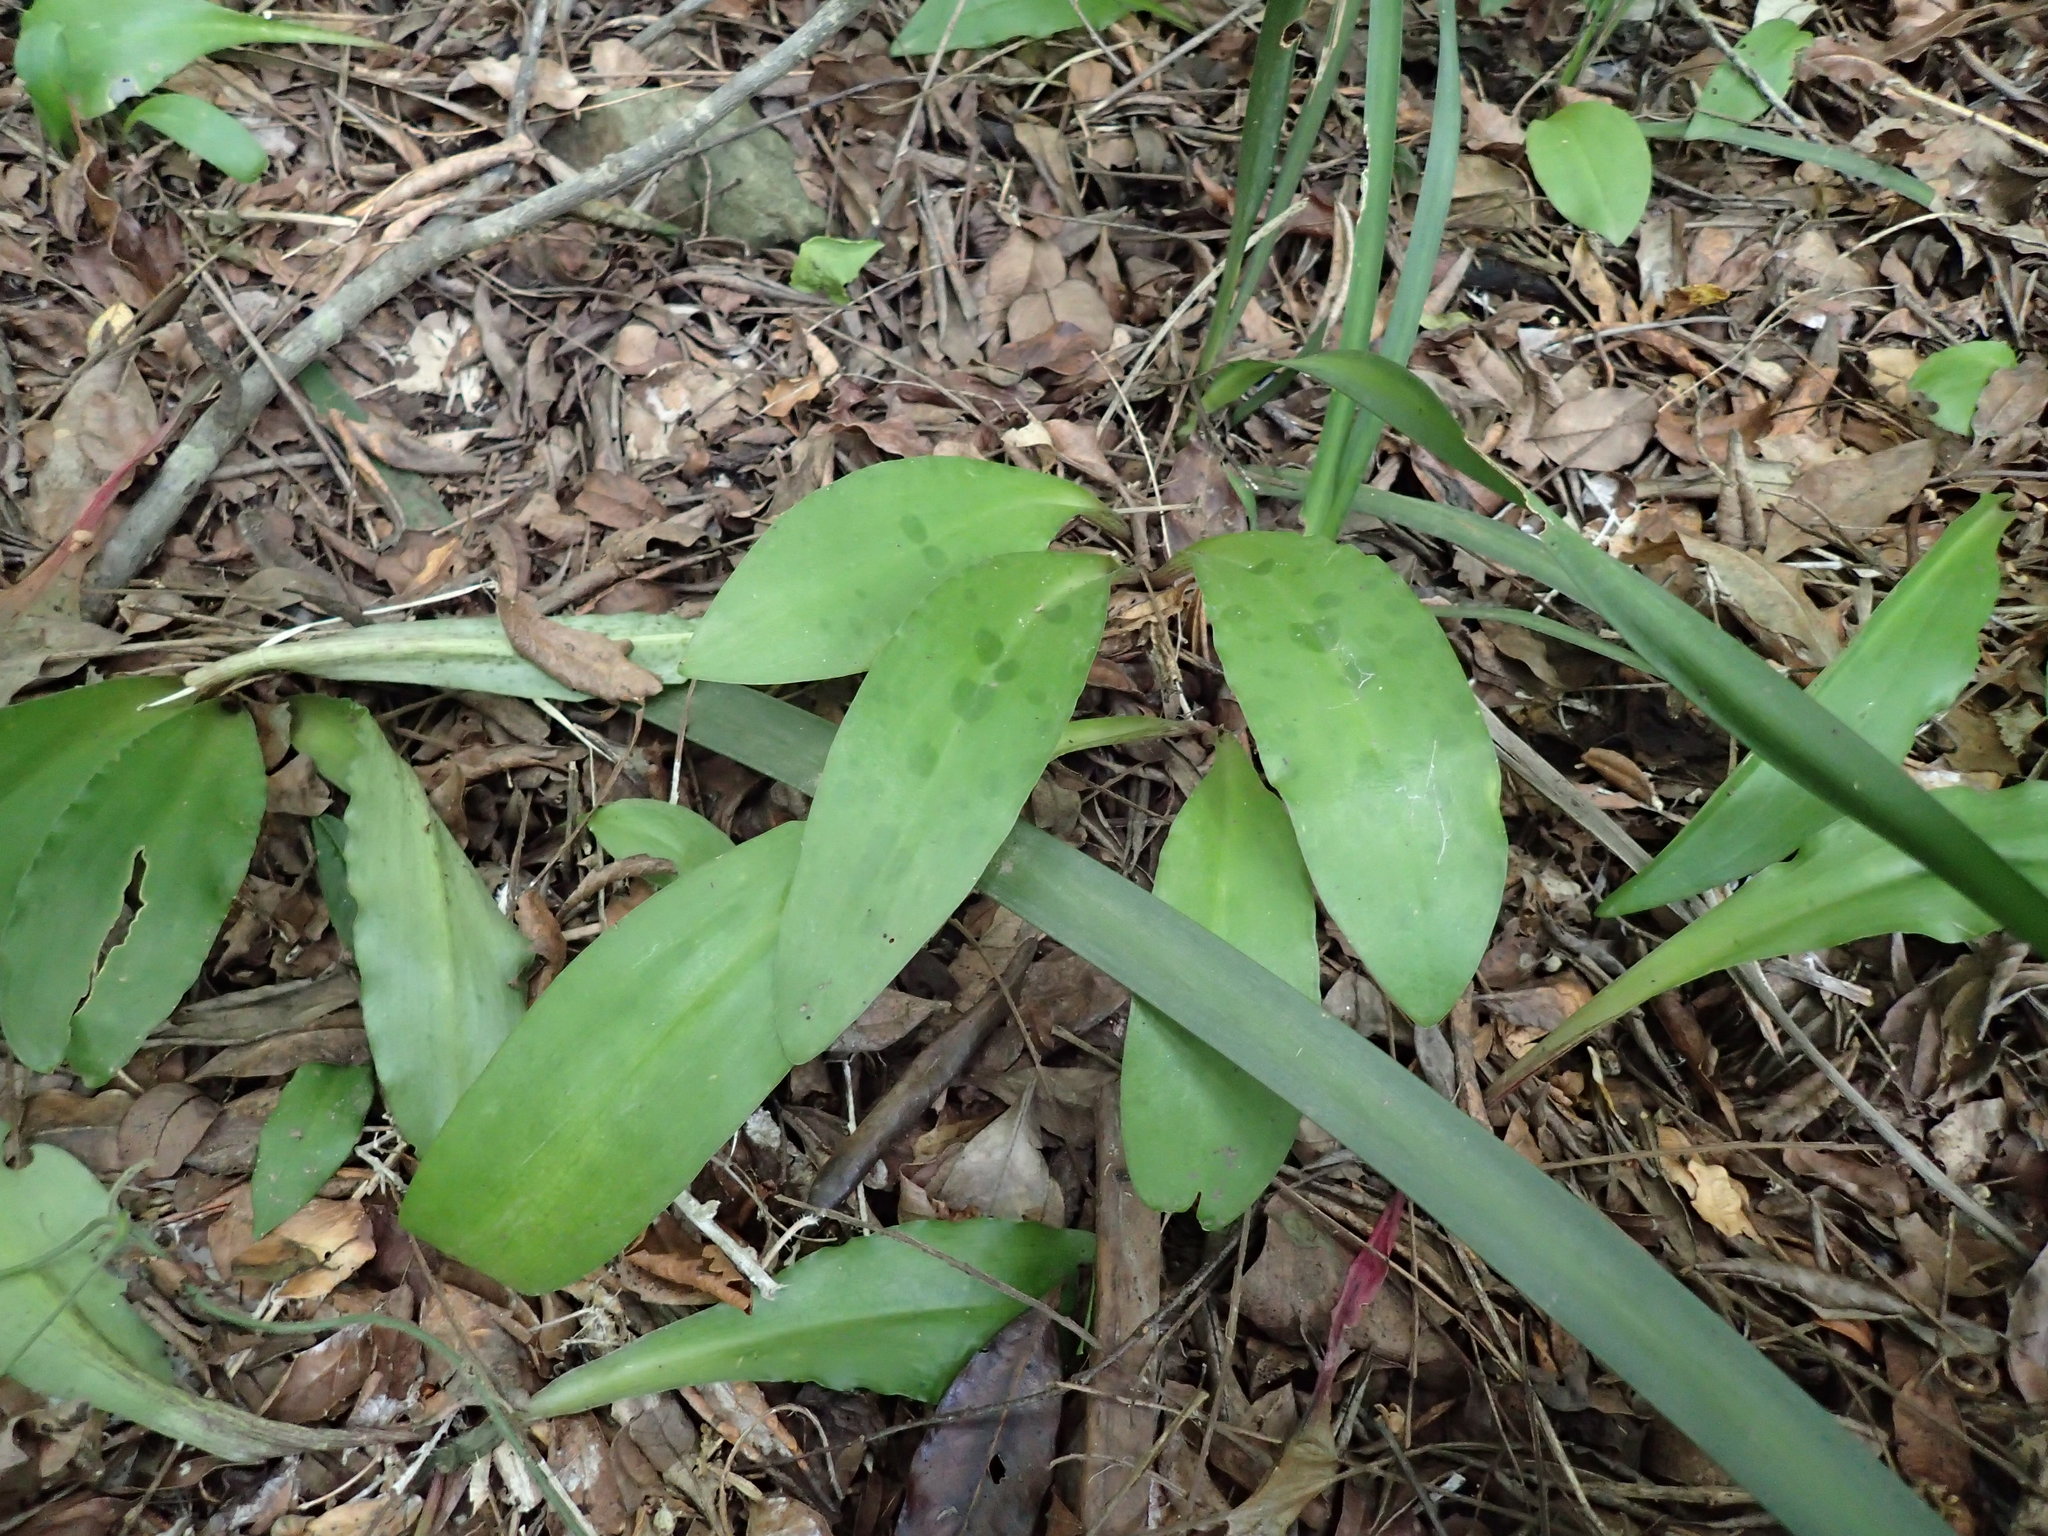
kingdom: Plantae
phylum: Tracheophyta
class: Liliopsida
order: Asparagales
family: Asparagaceae
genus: Resnova
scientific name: Resnova humifusa
